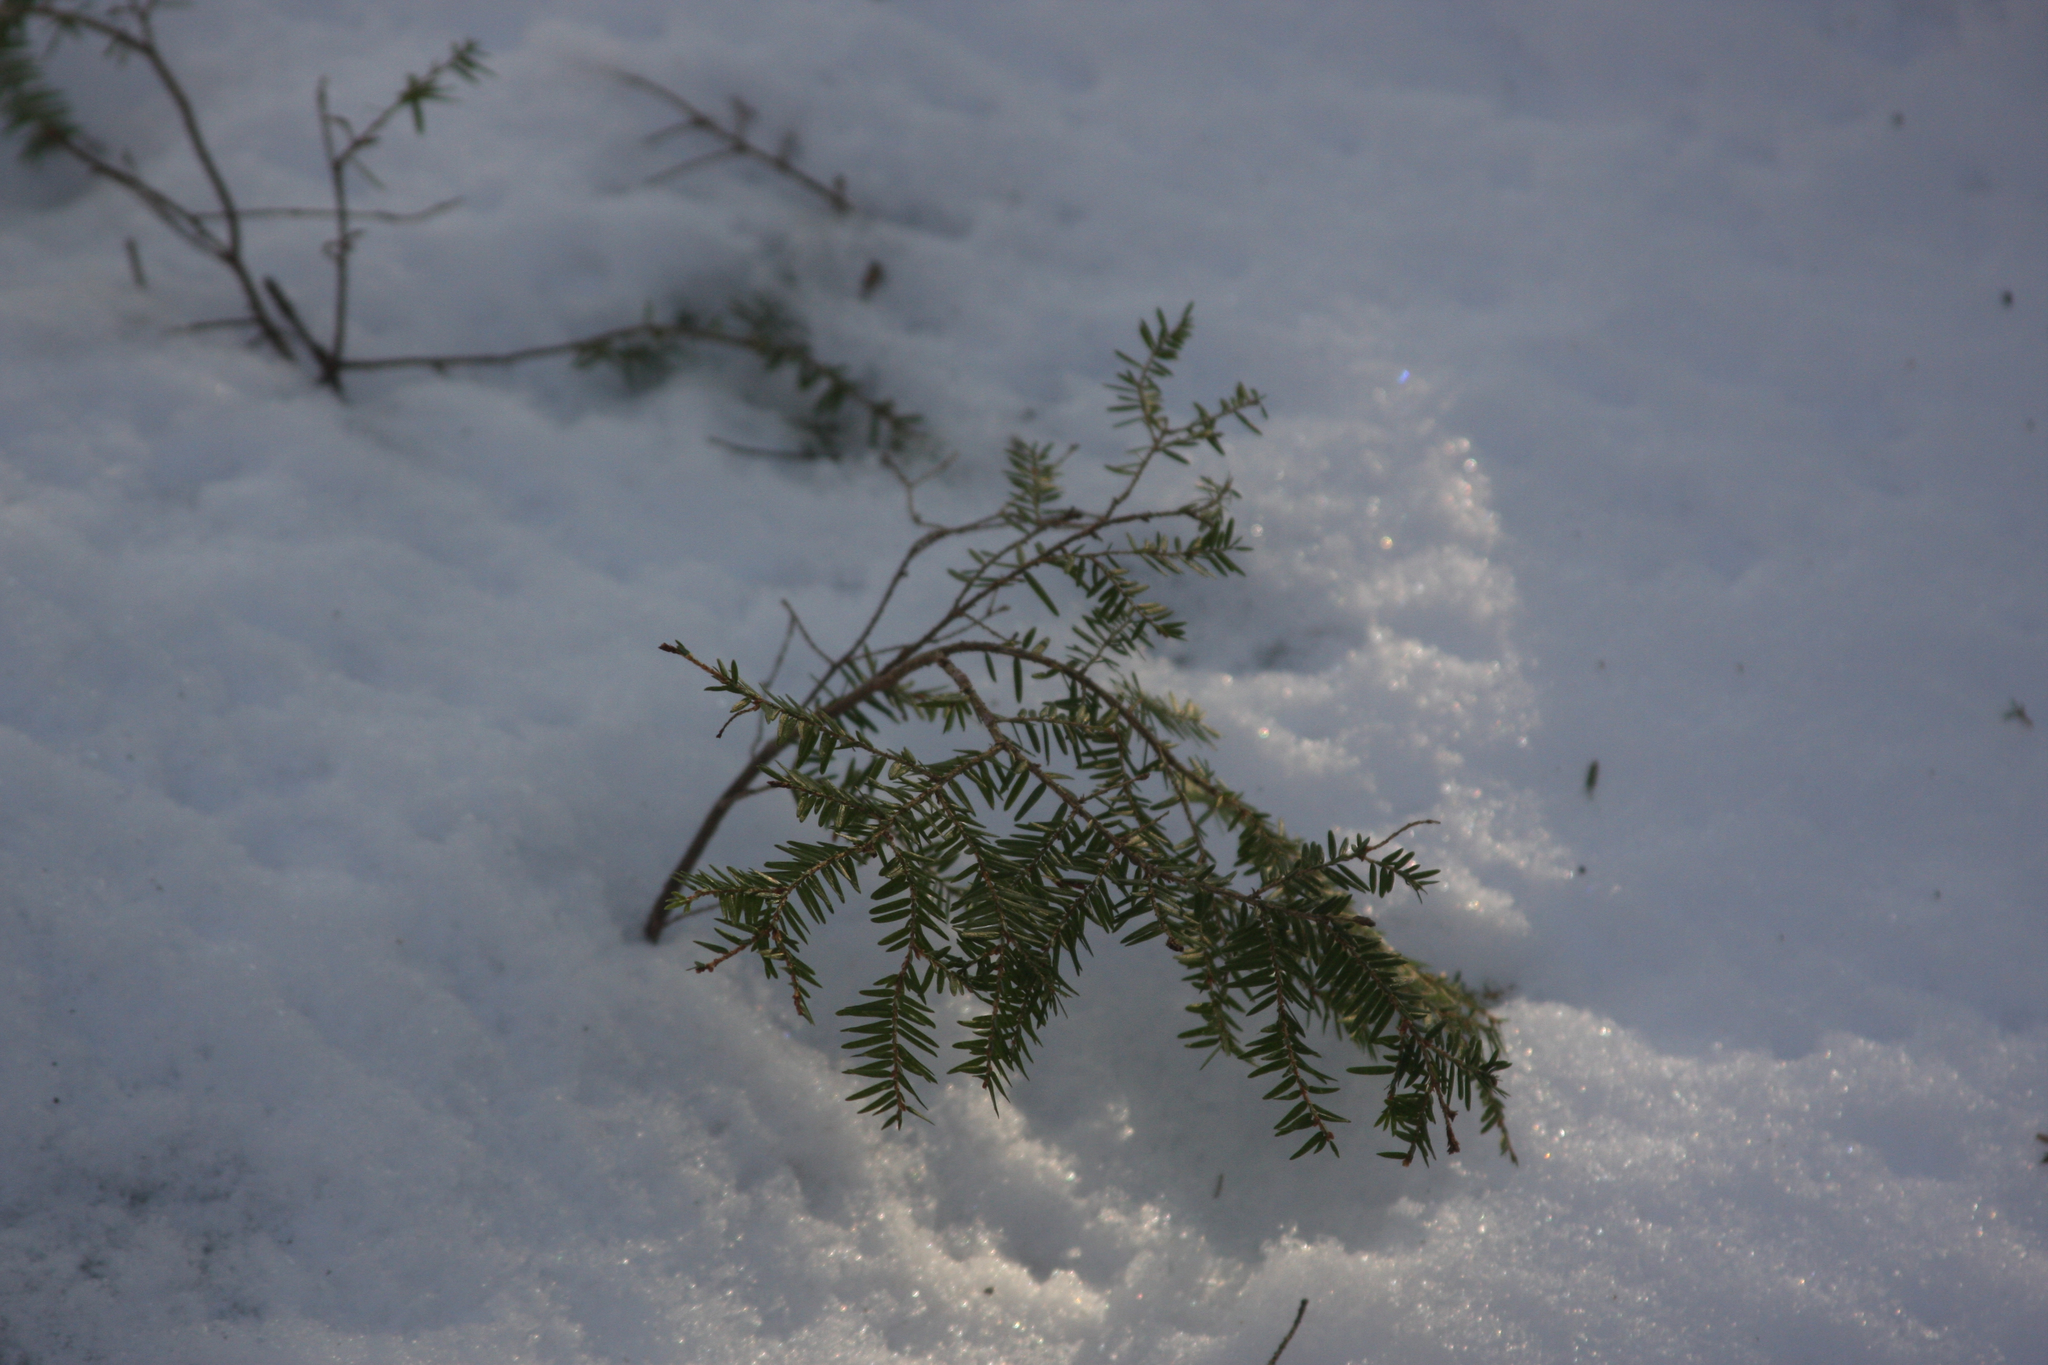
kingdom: Plantae
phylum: Tracheophyta
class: Pinopsida
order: Pinales
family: Pinaceae
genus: Tsuga
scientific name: Tsuga canadensis
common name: Eastern hemlock
